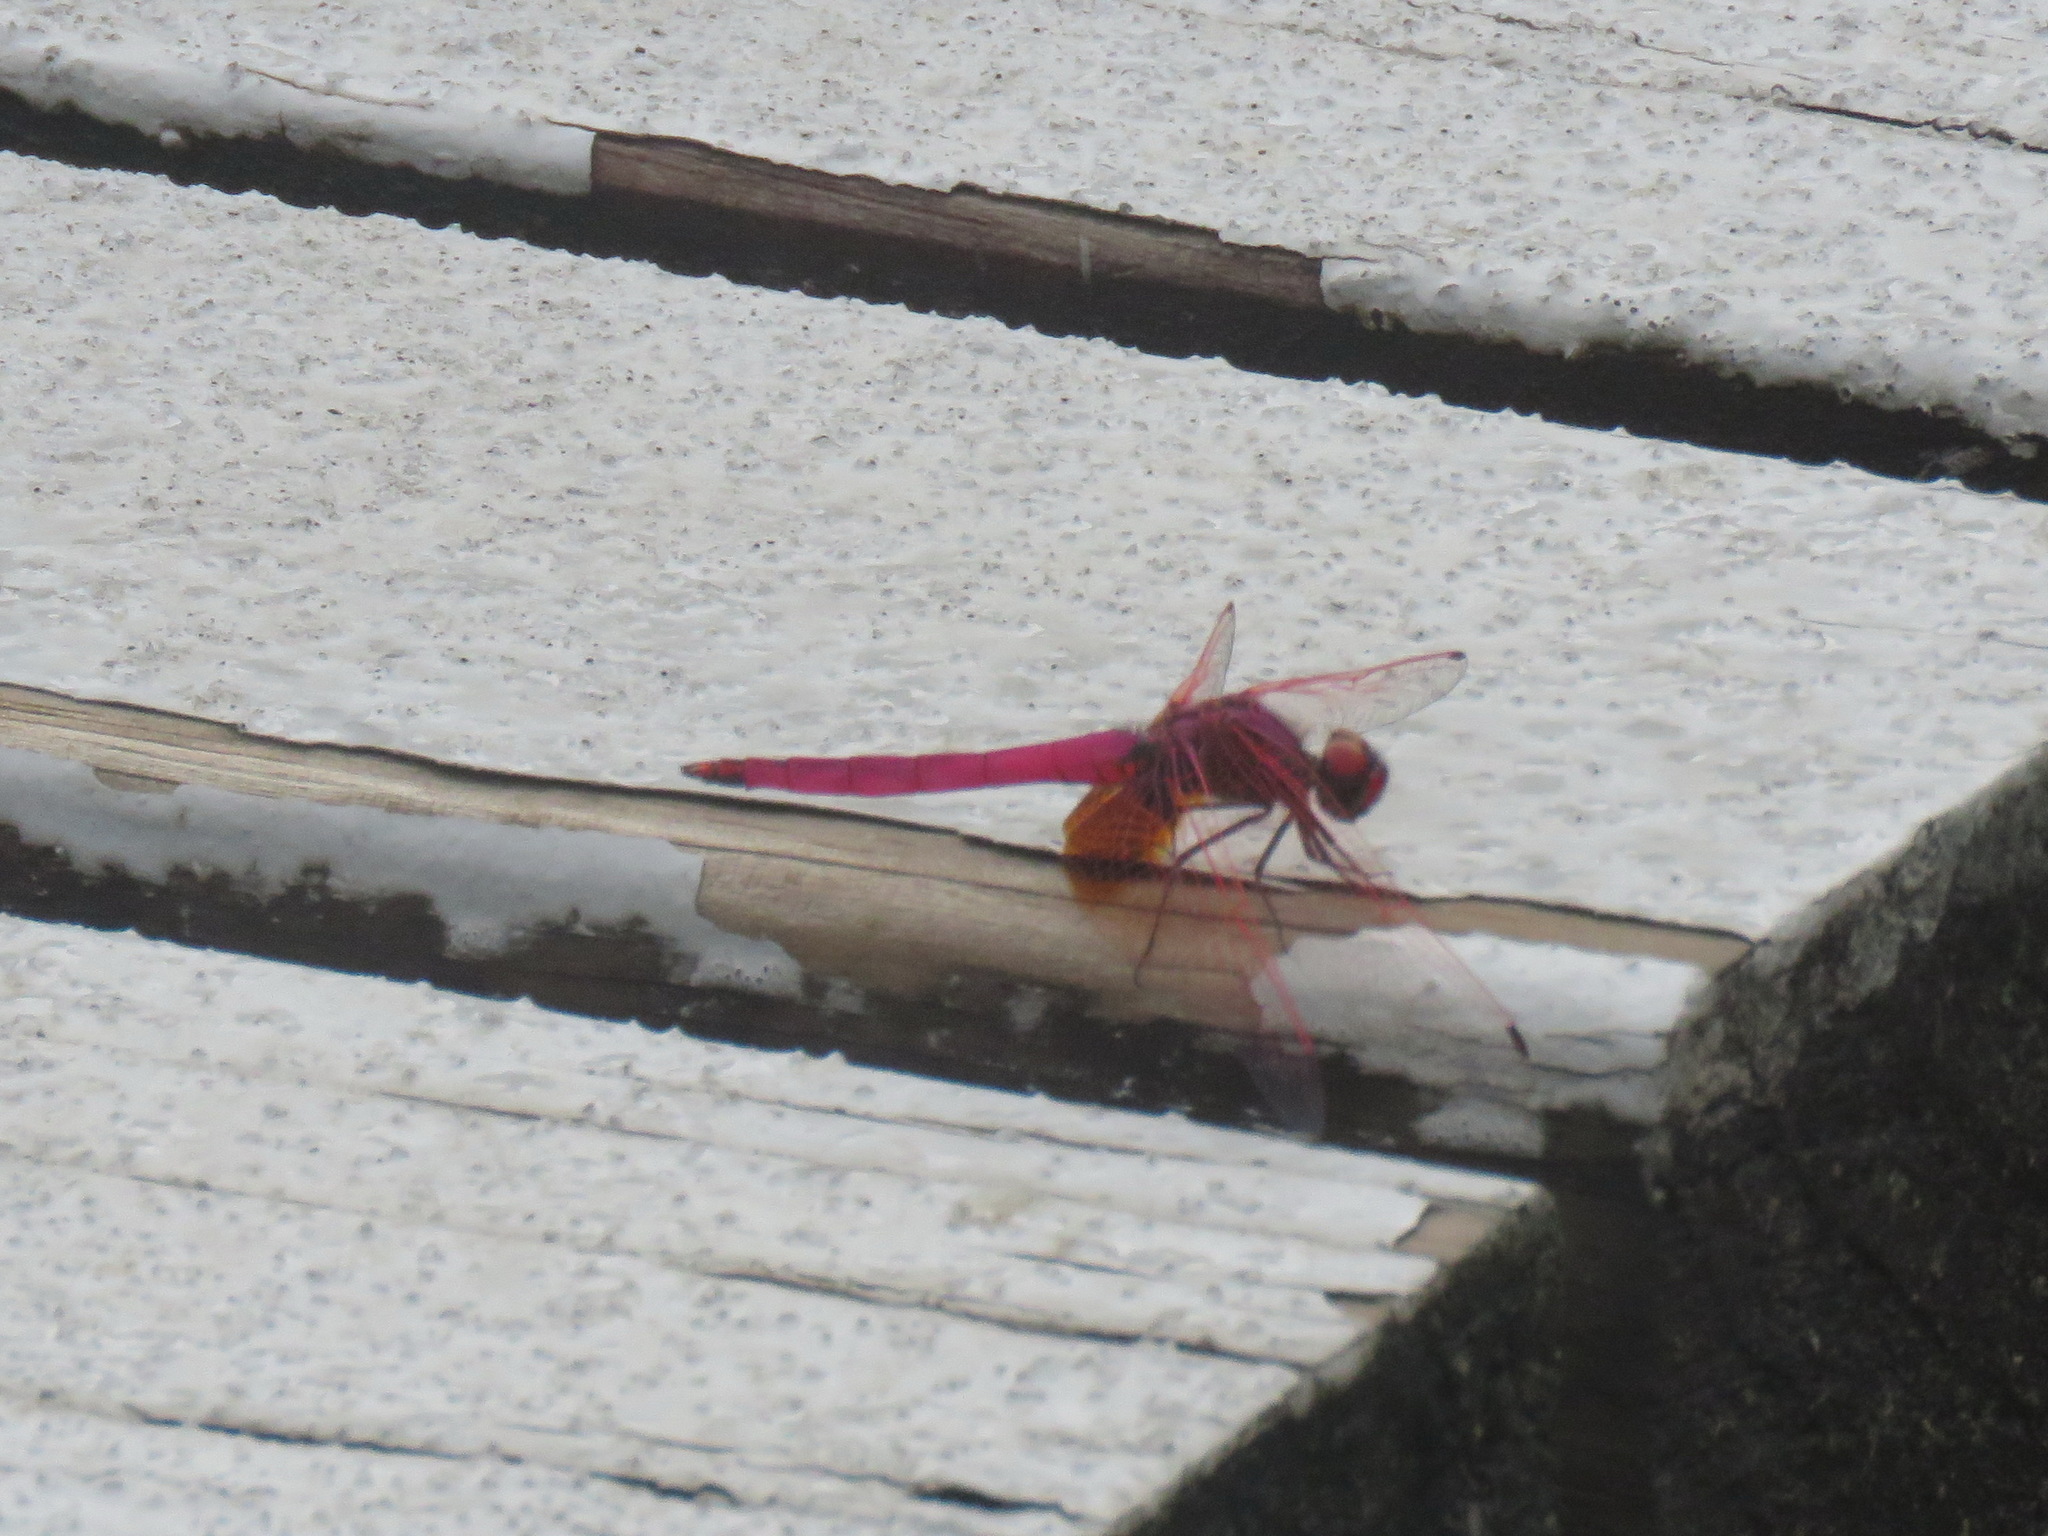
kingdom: Animalia
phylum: Arthropoda
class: Insecta
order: Odonata
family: Libellulidae
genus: Trithemis
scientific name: Trithemis aurora
